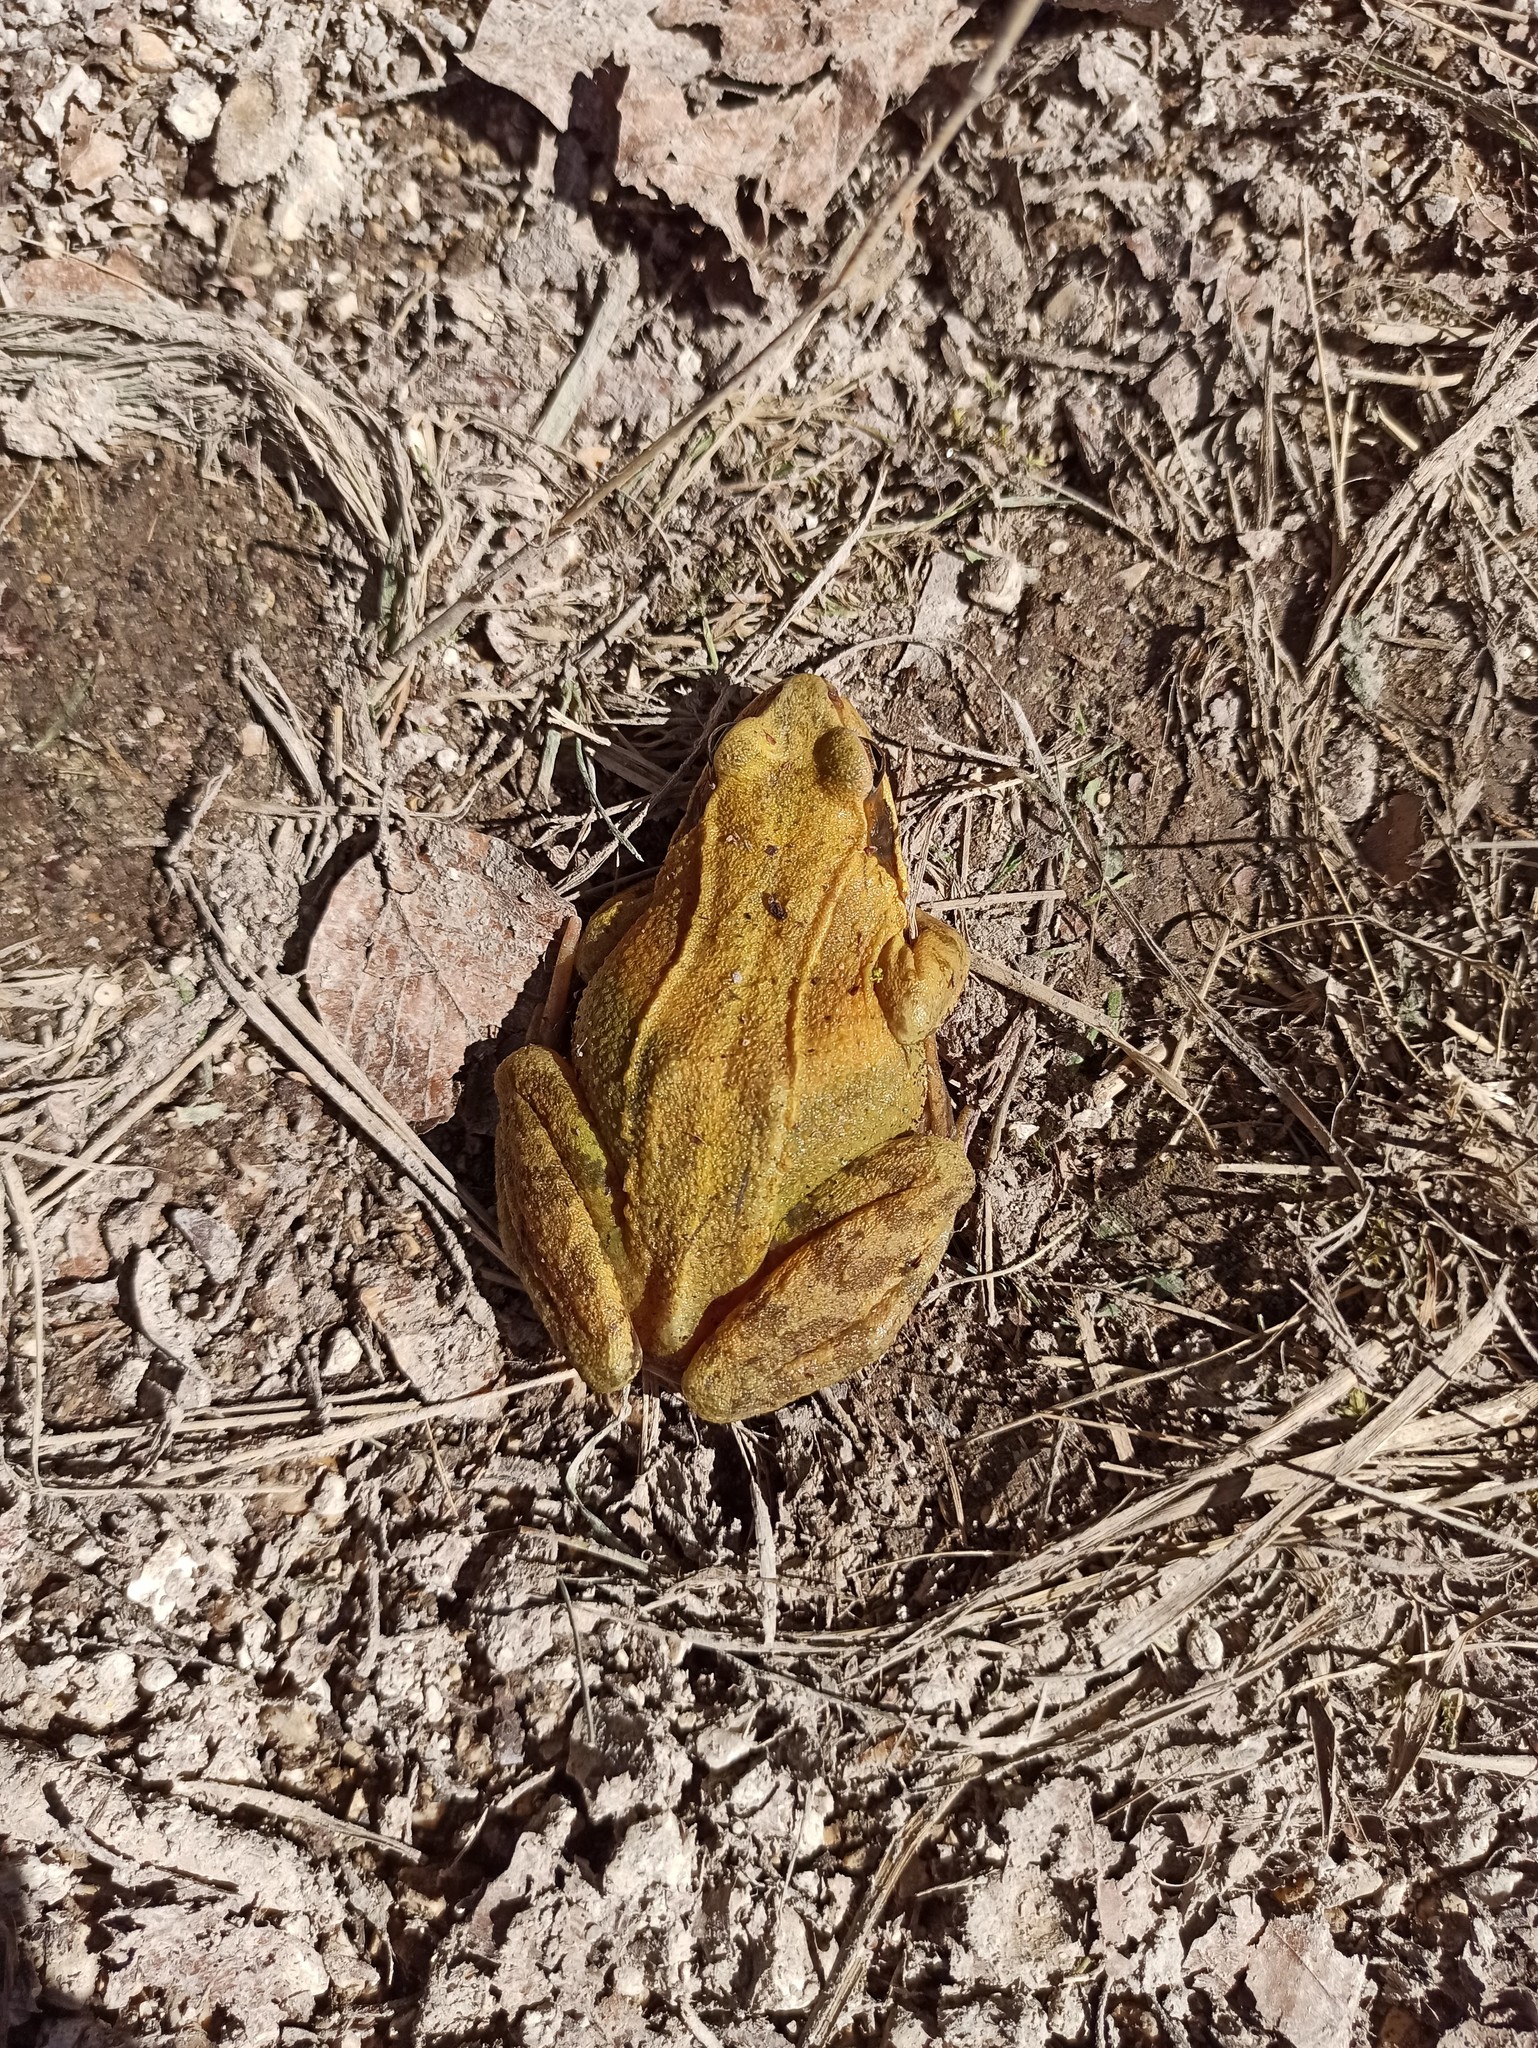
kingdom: Animalia
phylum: Chordata
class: Amphibia
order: Anura
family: Ranidae
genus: Rana
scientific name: Rana temporaria
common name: Common frog
